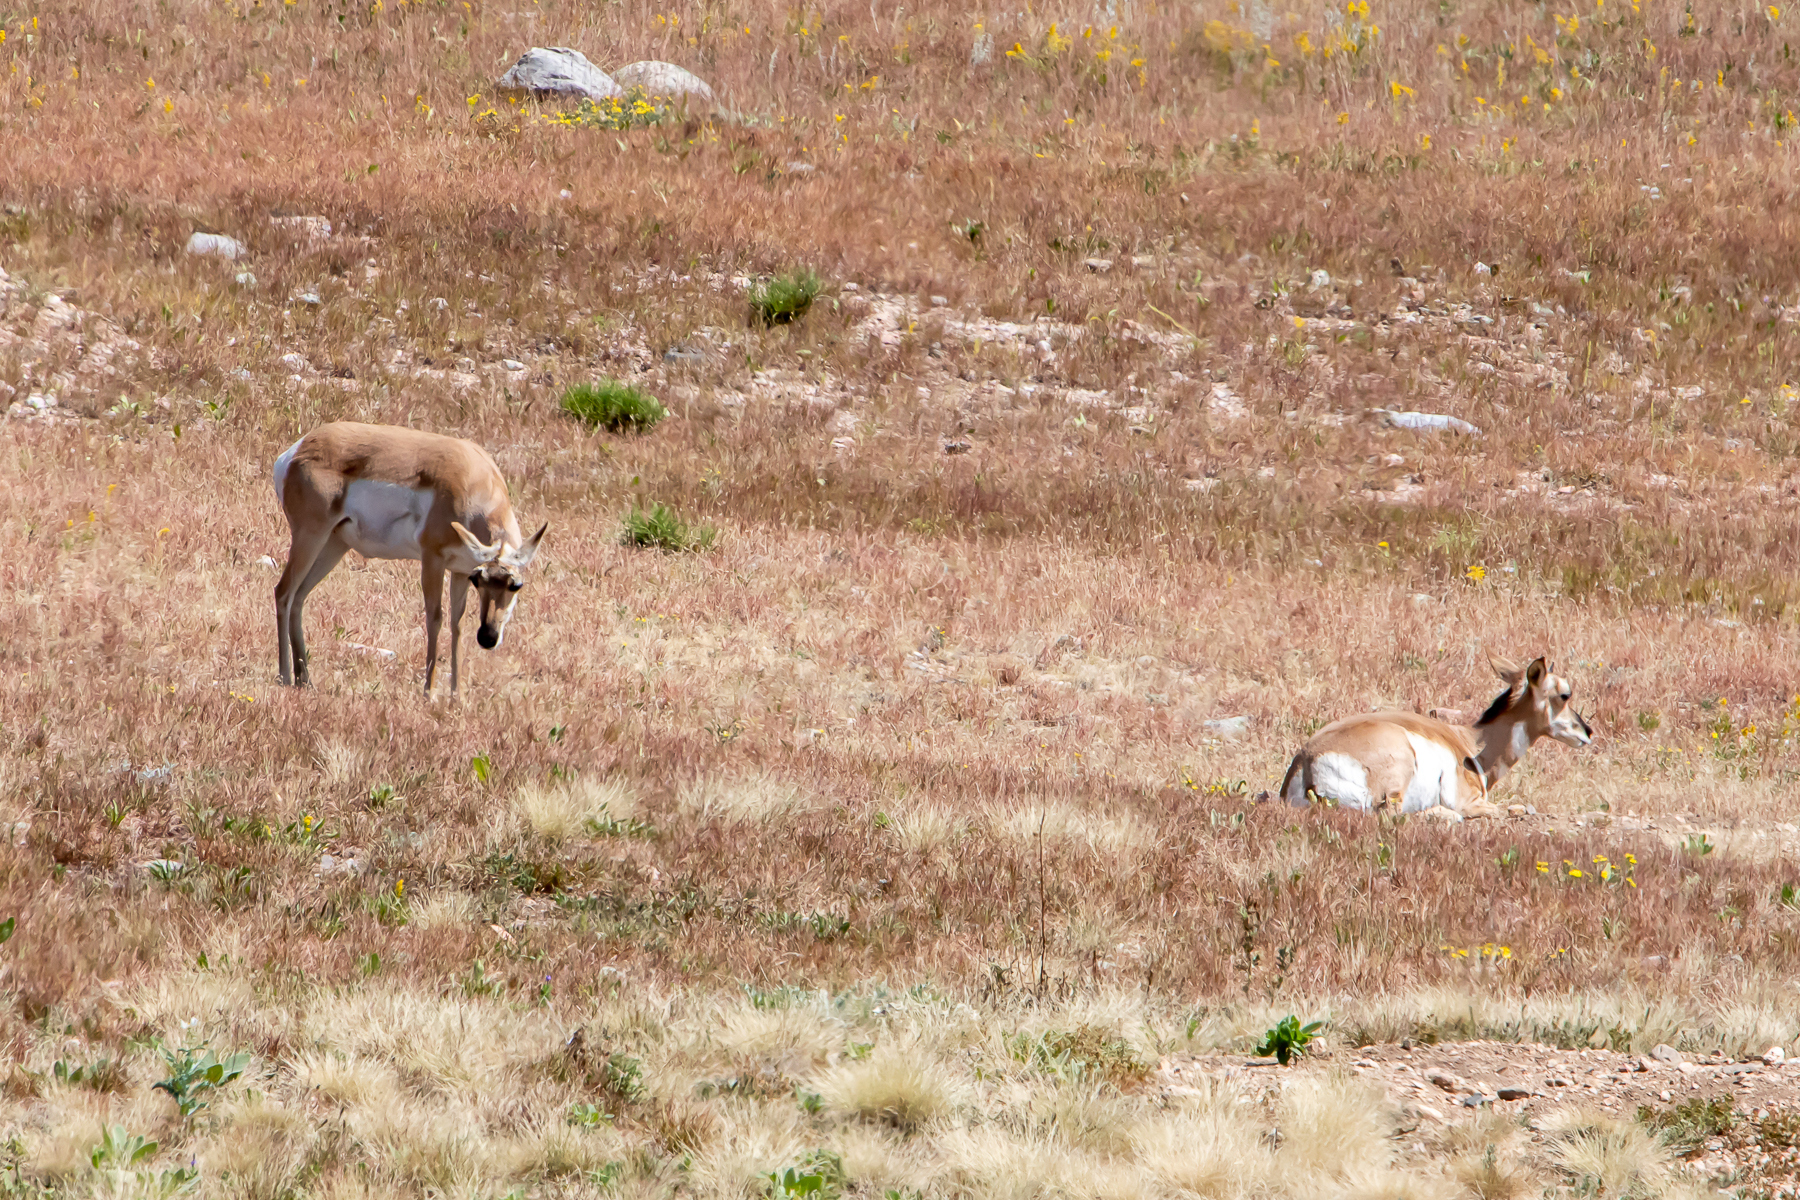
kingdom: Animalia
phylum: Chordata
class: Mammalia
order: Artiodactyla
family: Antilocapridae
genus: Antilocapra
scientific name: Antilocapra americana
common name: Pronghorn
